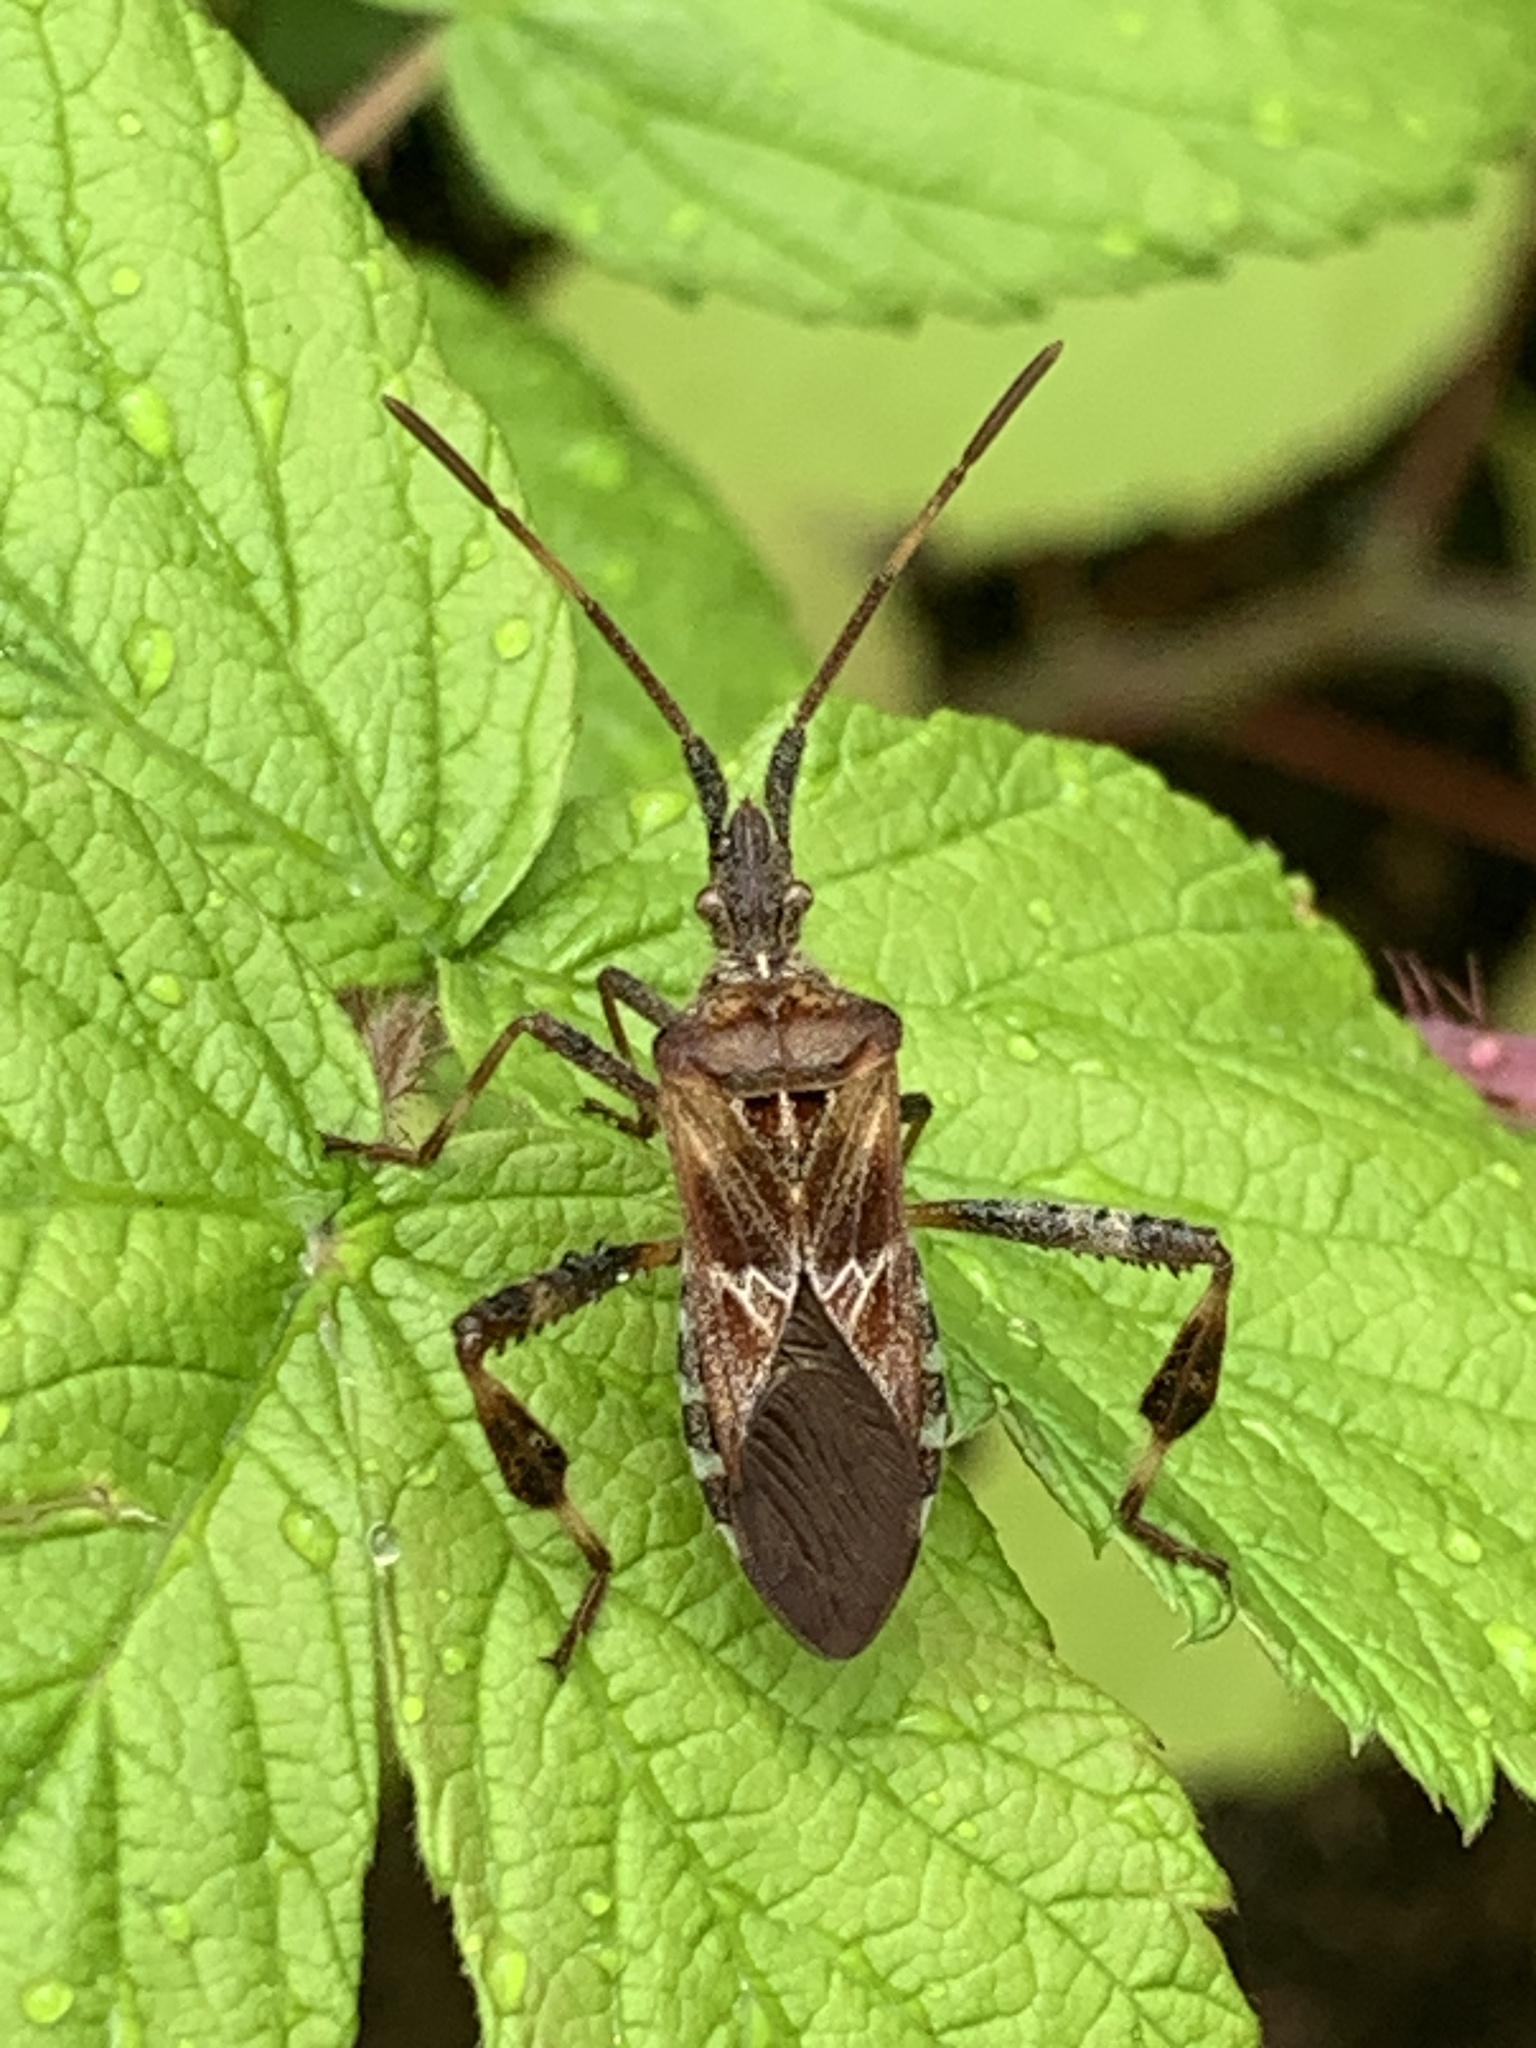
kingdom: Animalia
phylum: Arthropoda
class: Insecta
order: Hemiptera
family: Coreidae
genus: Leptoglossus
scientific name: Leptoglossus occidentalis
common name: Western conifer-seed bug
